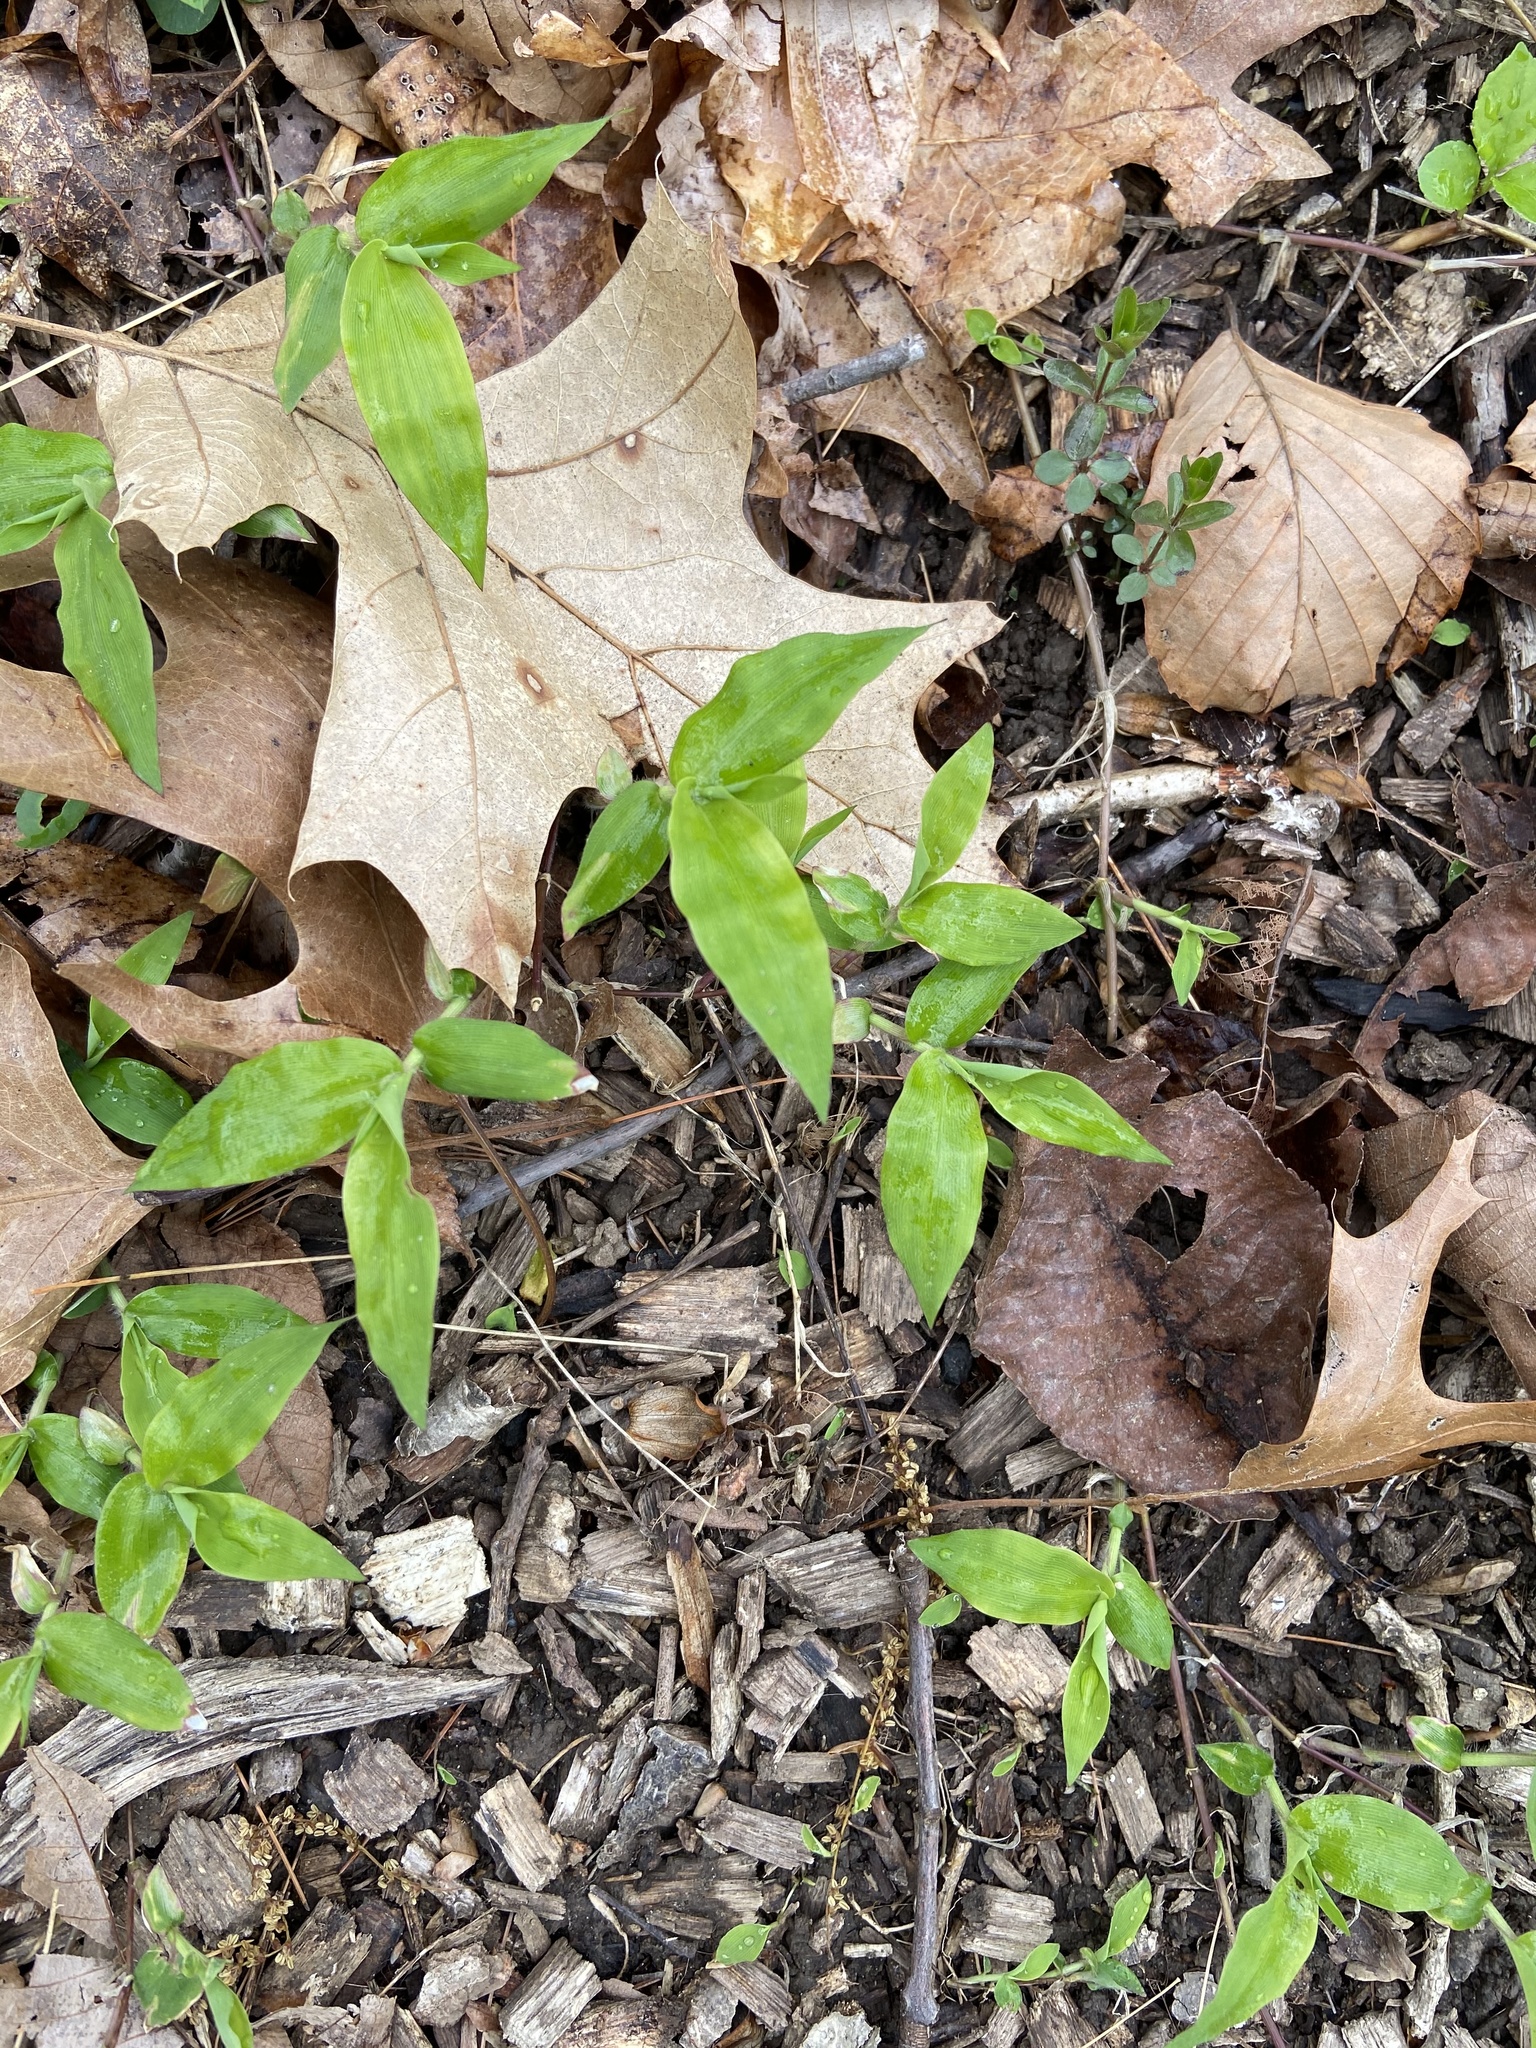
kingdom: Plantae
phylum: Tracheophyta
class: Liliopsida
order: Poales
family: Poaceae
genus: Oplismenus
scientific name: Oplismenus undulatifolius
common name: Wavyleaf basketgrass
